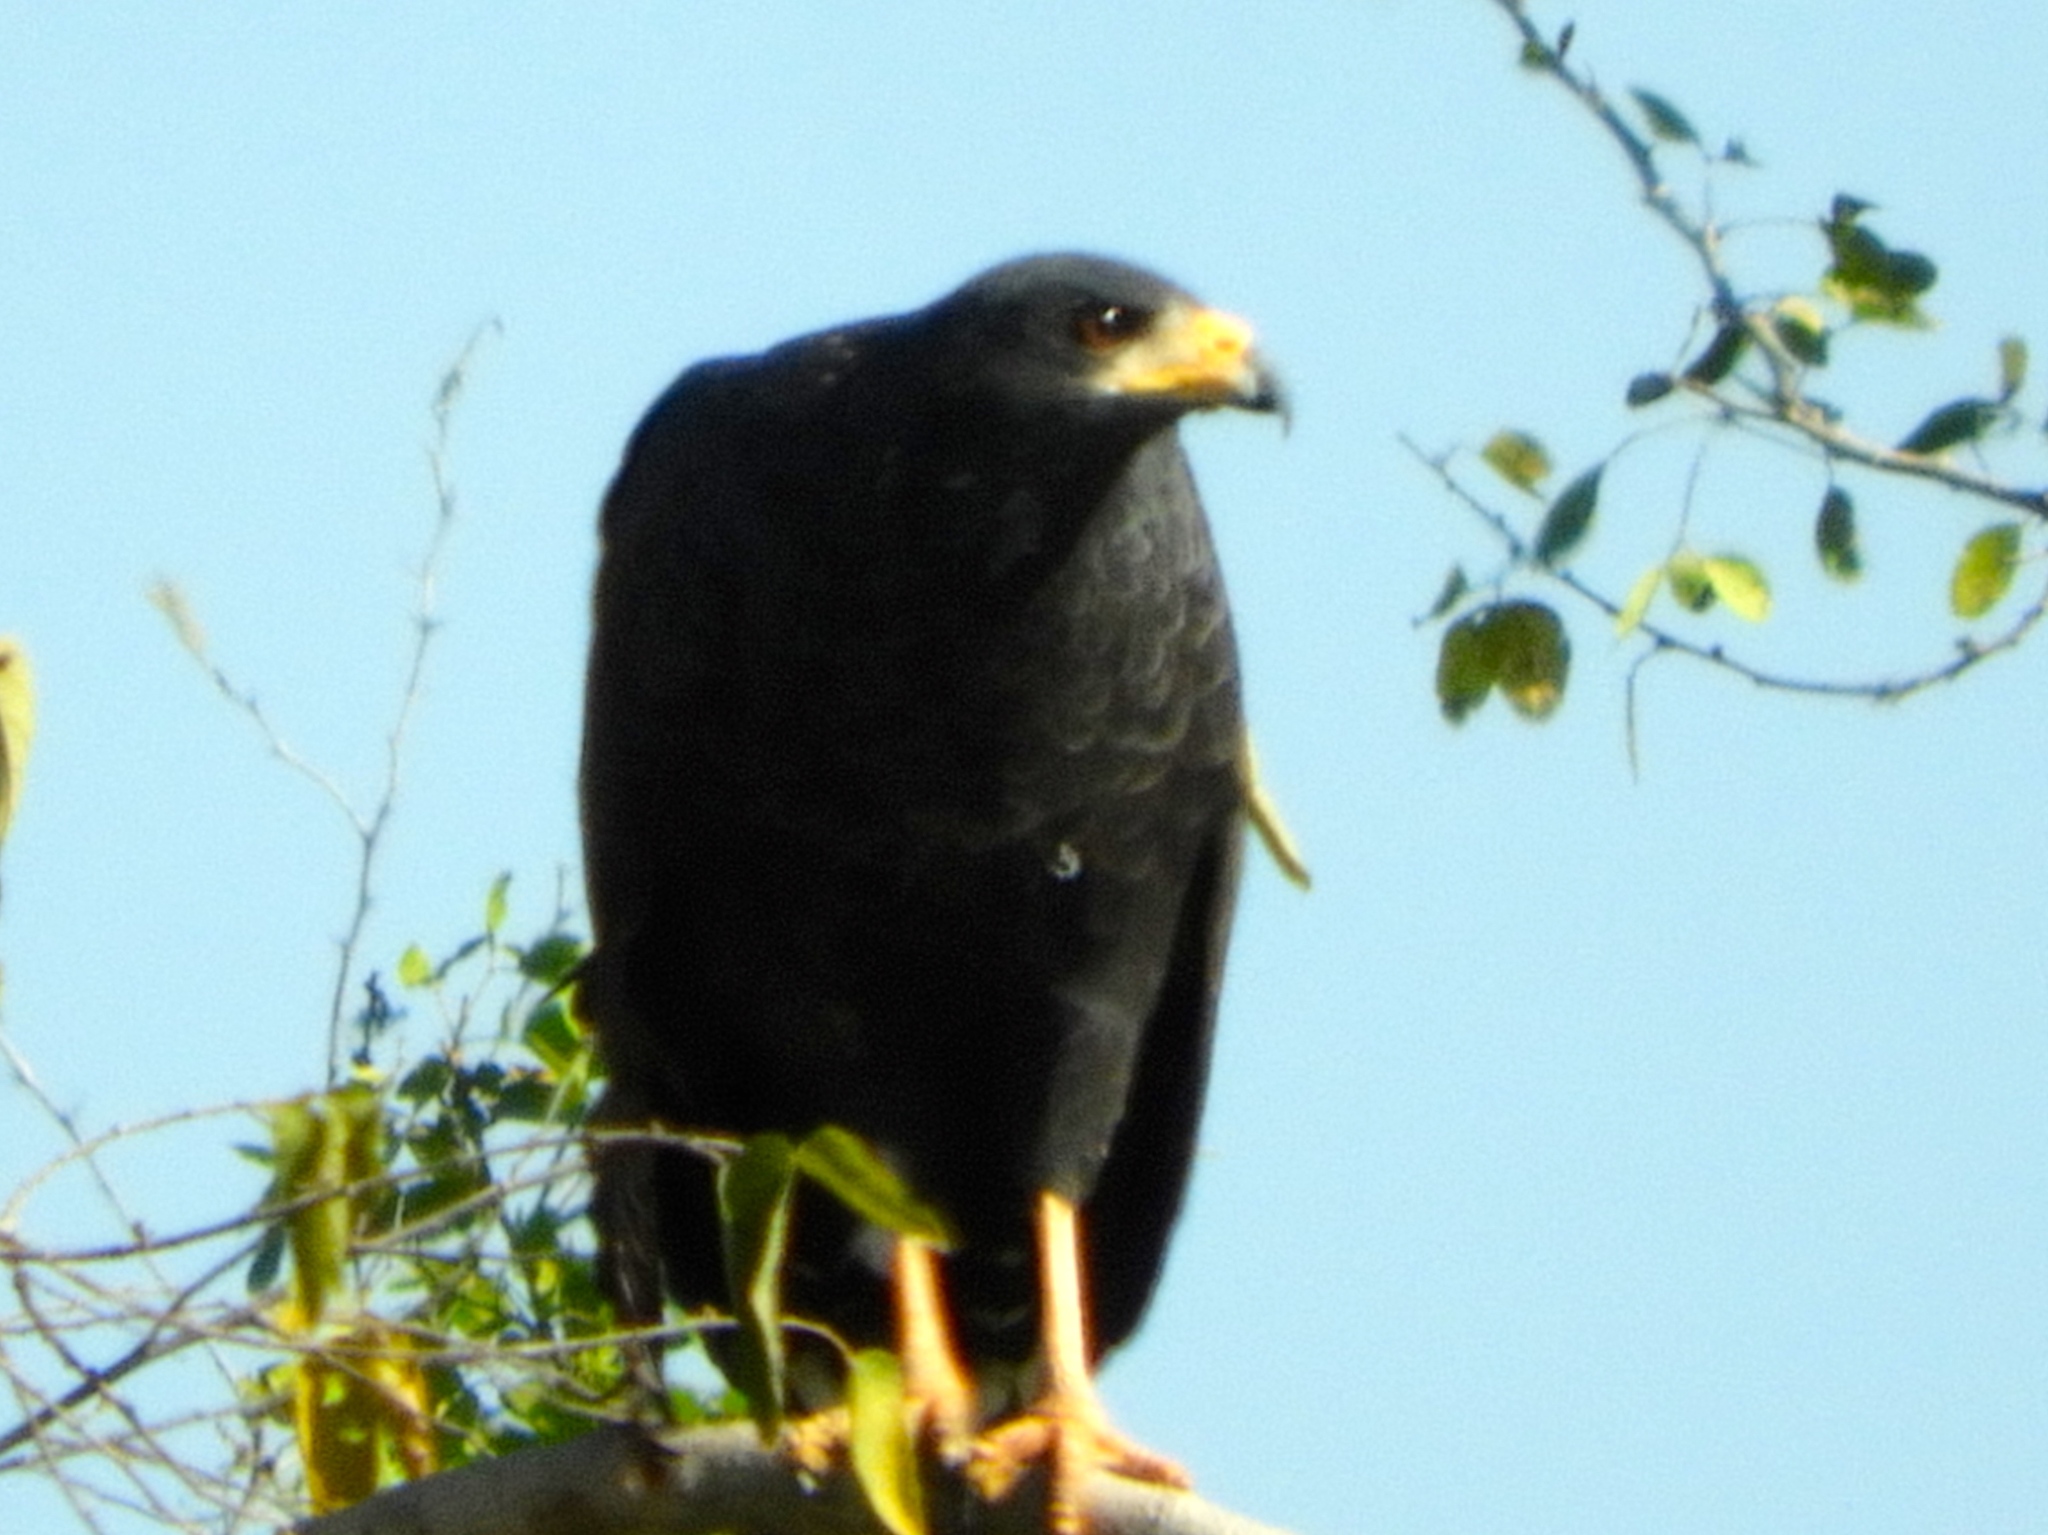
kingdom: Animalia
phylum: Chordata
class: Aves
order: Accipitriformes
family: Accipitridae
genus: Buteogallus
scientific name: Buteogallus anthracinus
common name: Common black hawk
